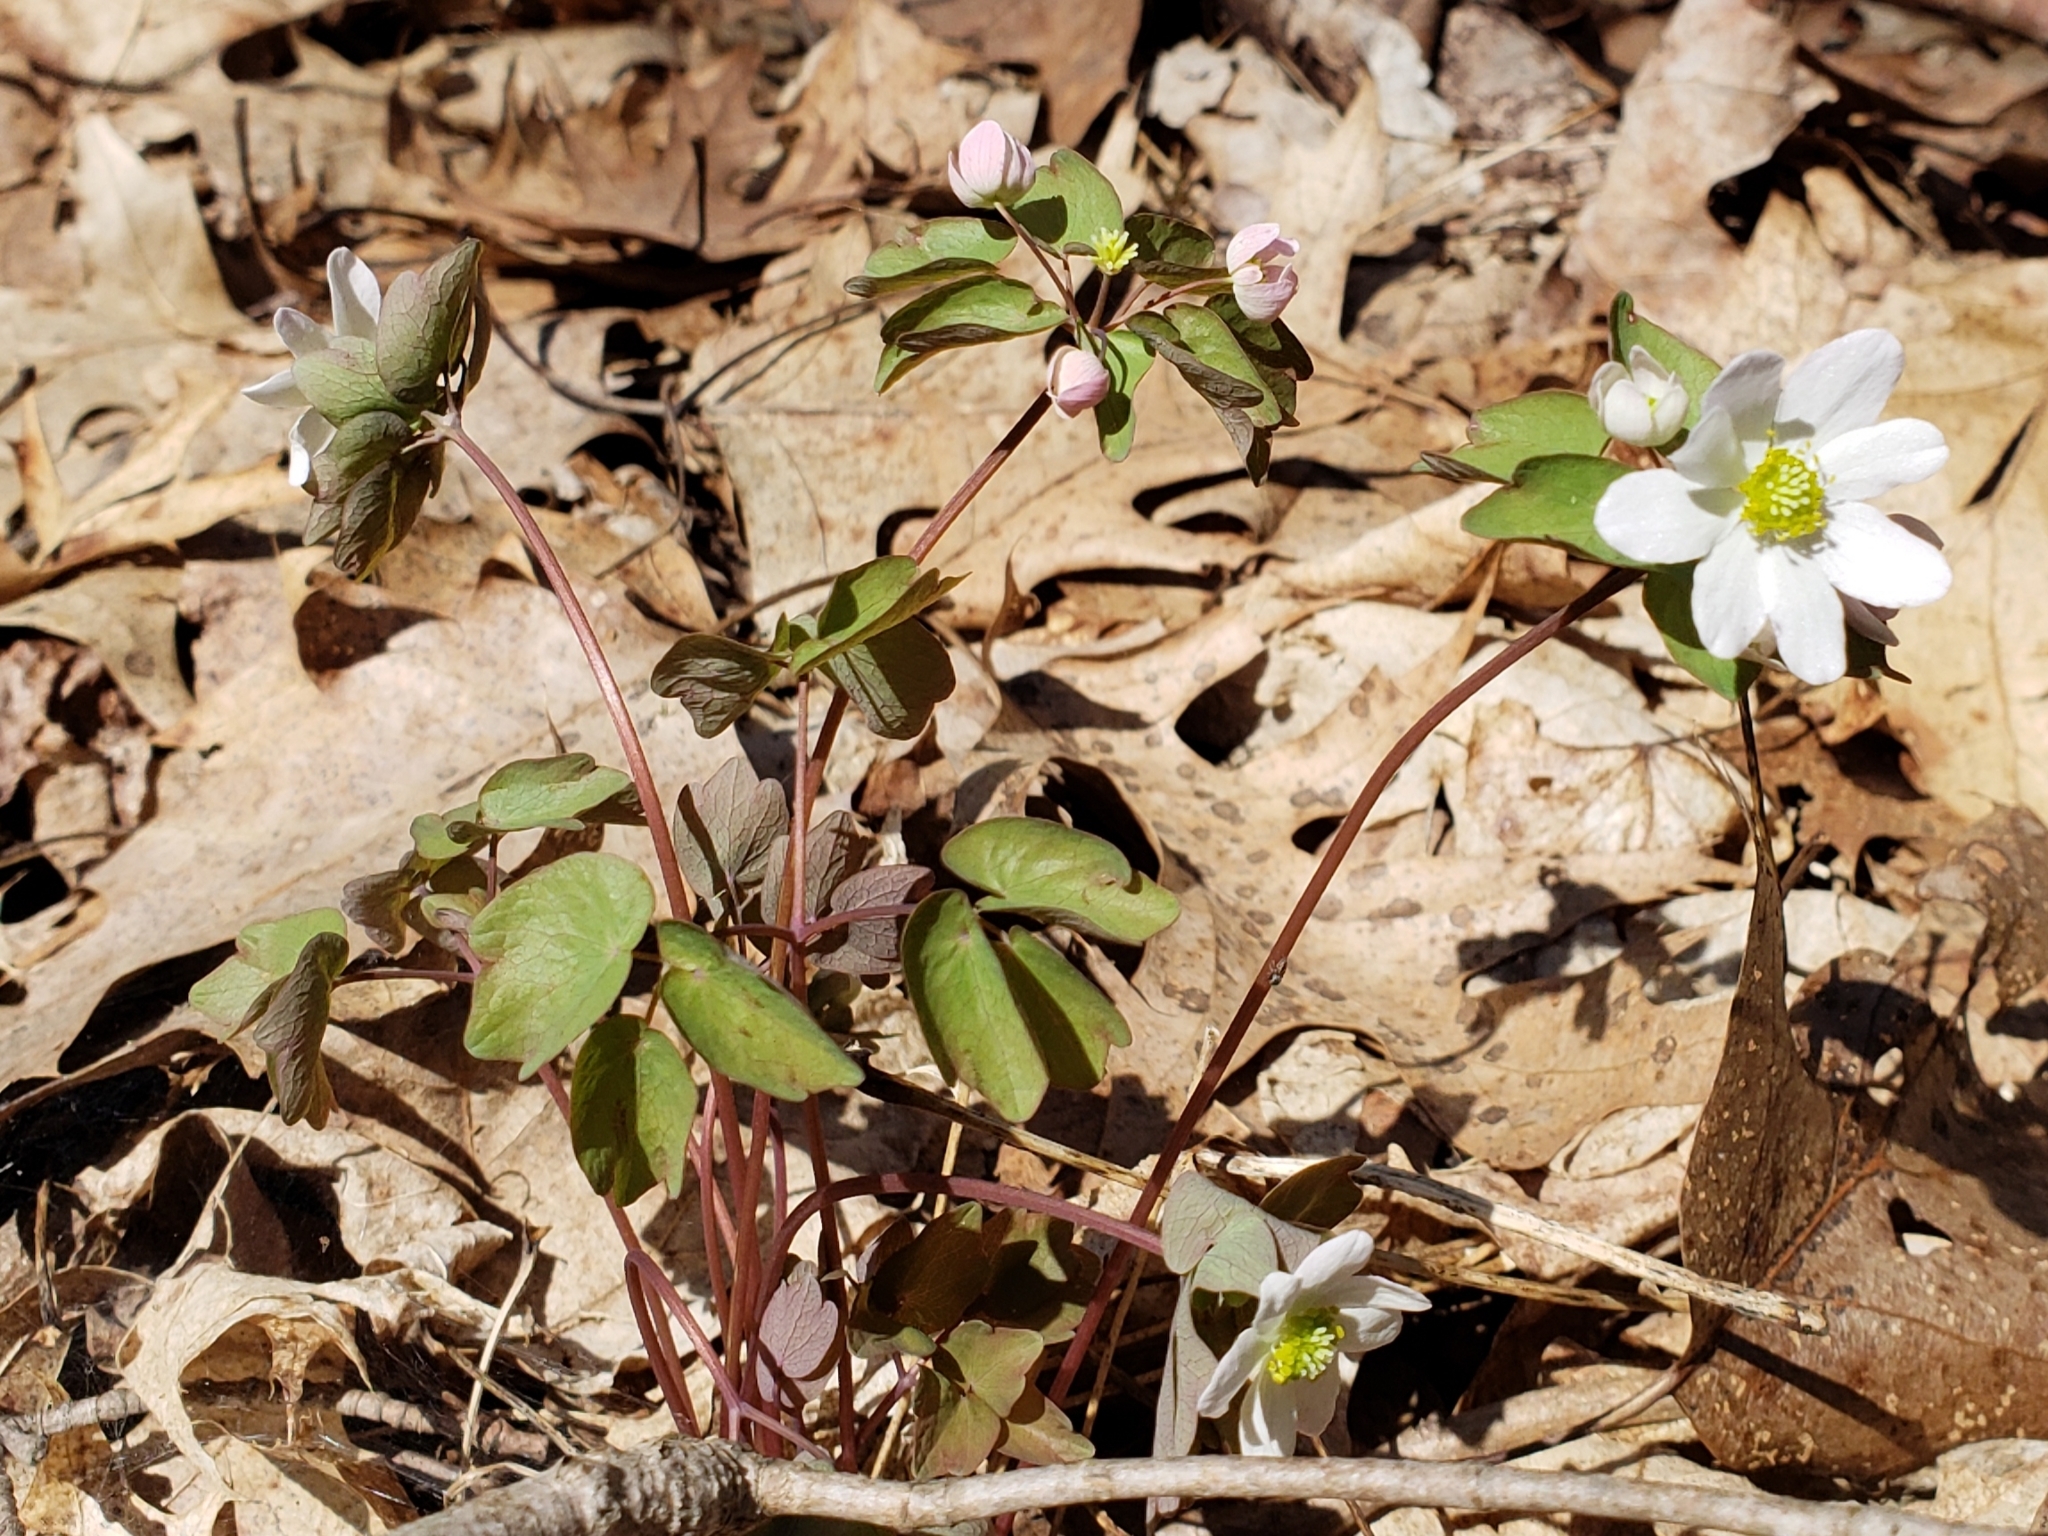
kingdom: Plantae
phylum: Tracheophyta
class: Magnoliopsida
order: Ranunculales
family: Ranunculaceae
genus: Thalictrum
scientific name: Thalictrum thalictroides
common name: Rue-anemone
